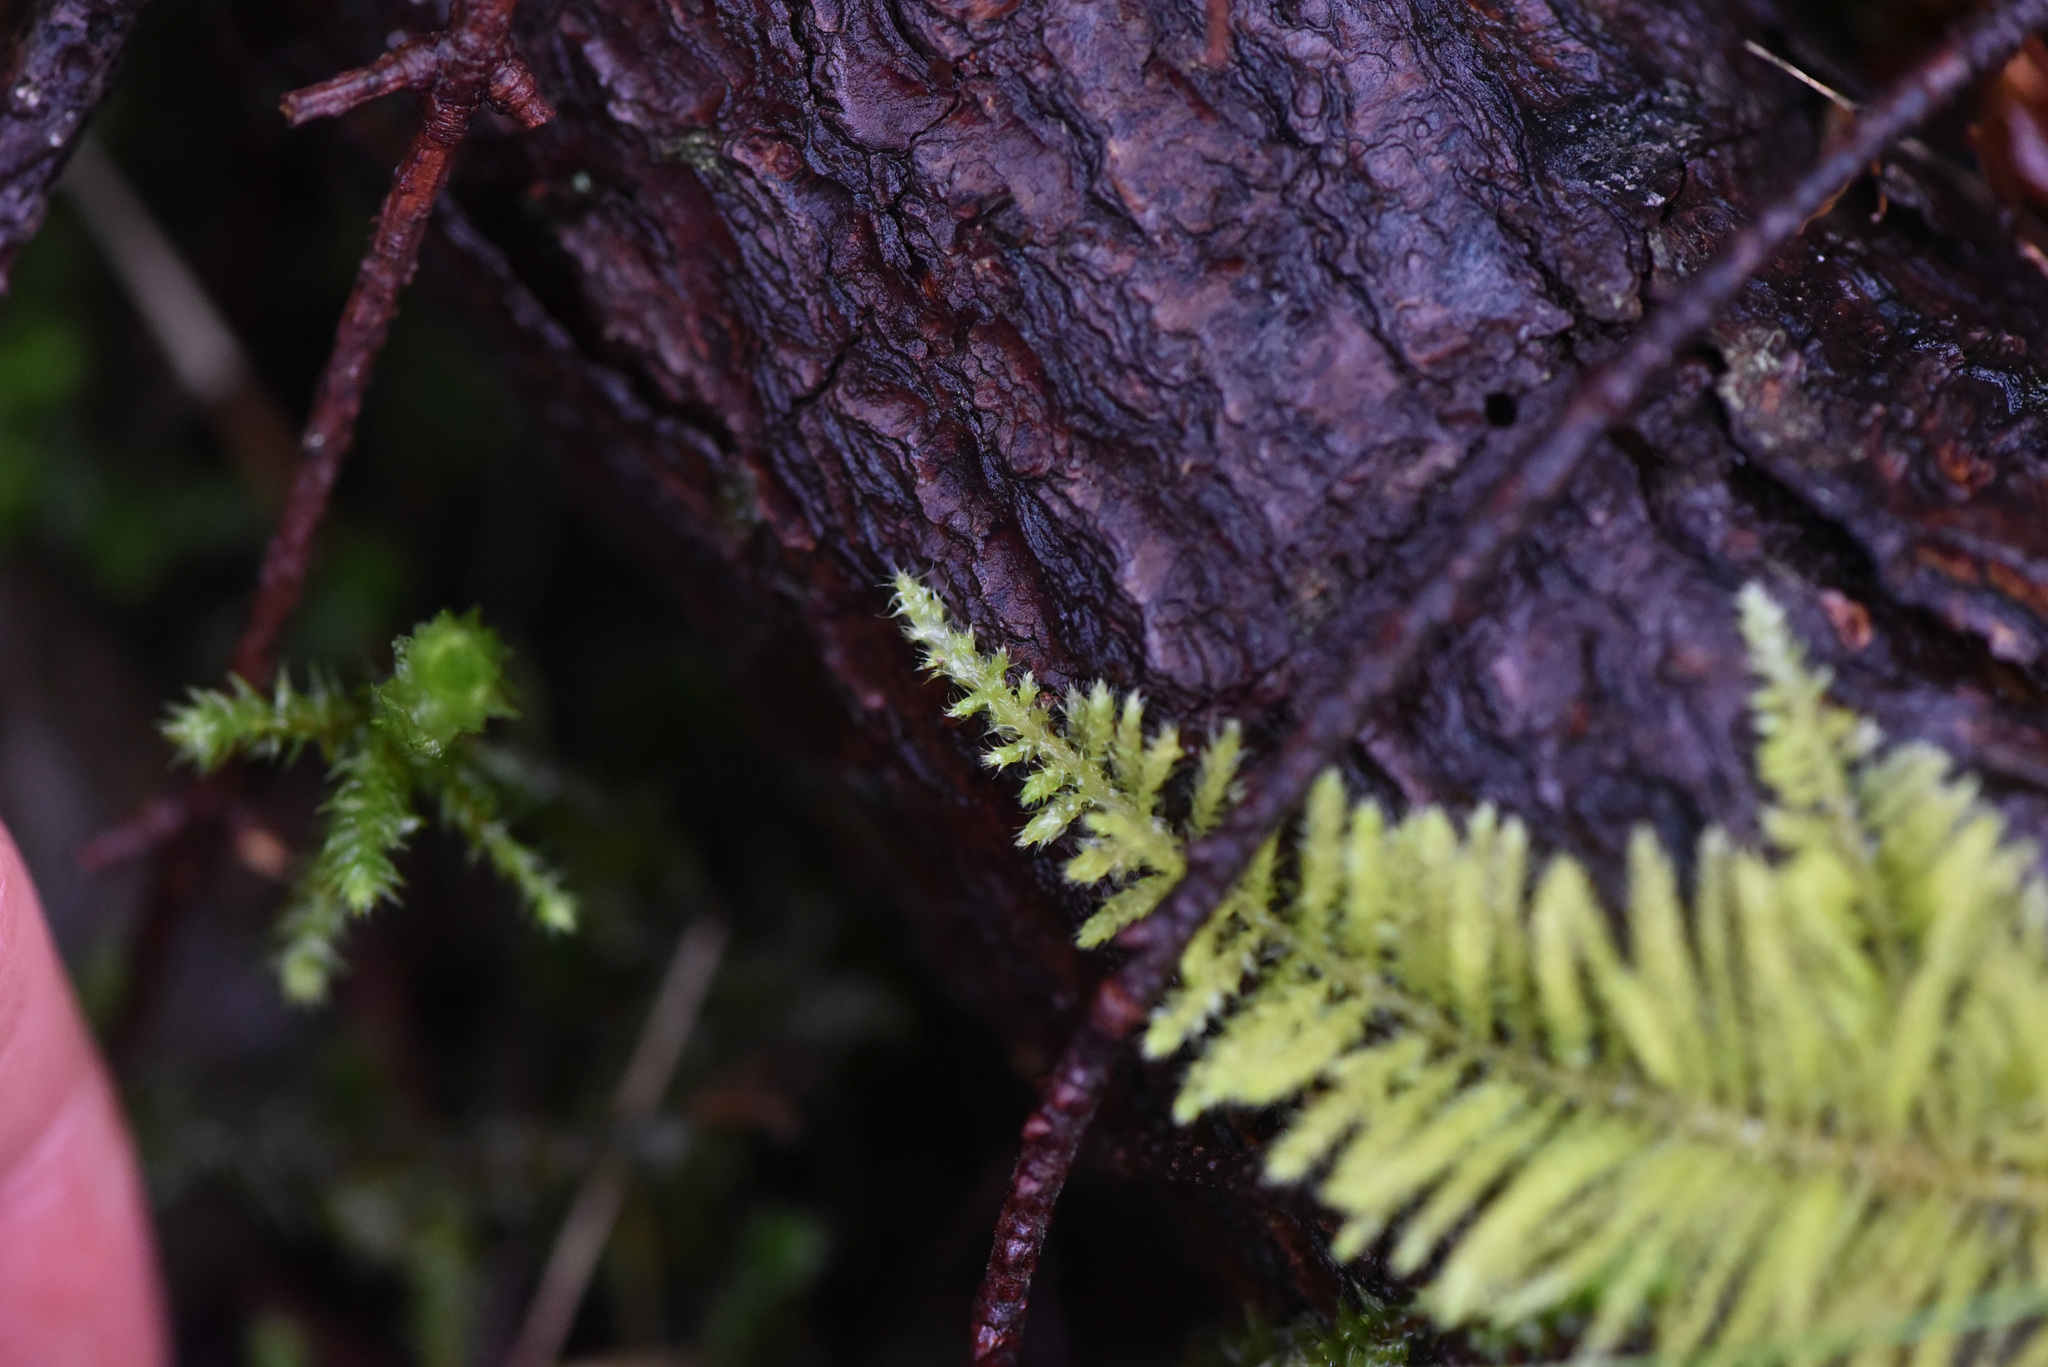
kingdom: Plantae
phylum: Bryophyta
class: Bryopsida
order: Hypnales
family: Brachytheciaceae
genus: Kindbergia
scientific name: Kindbergia oregana
